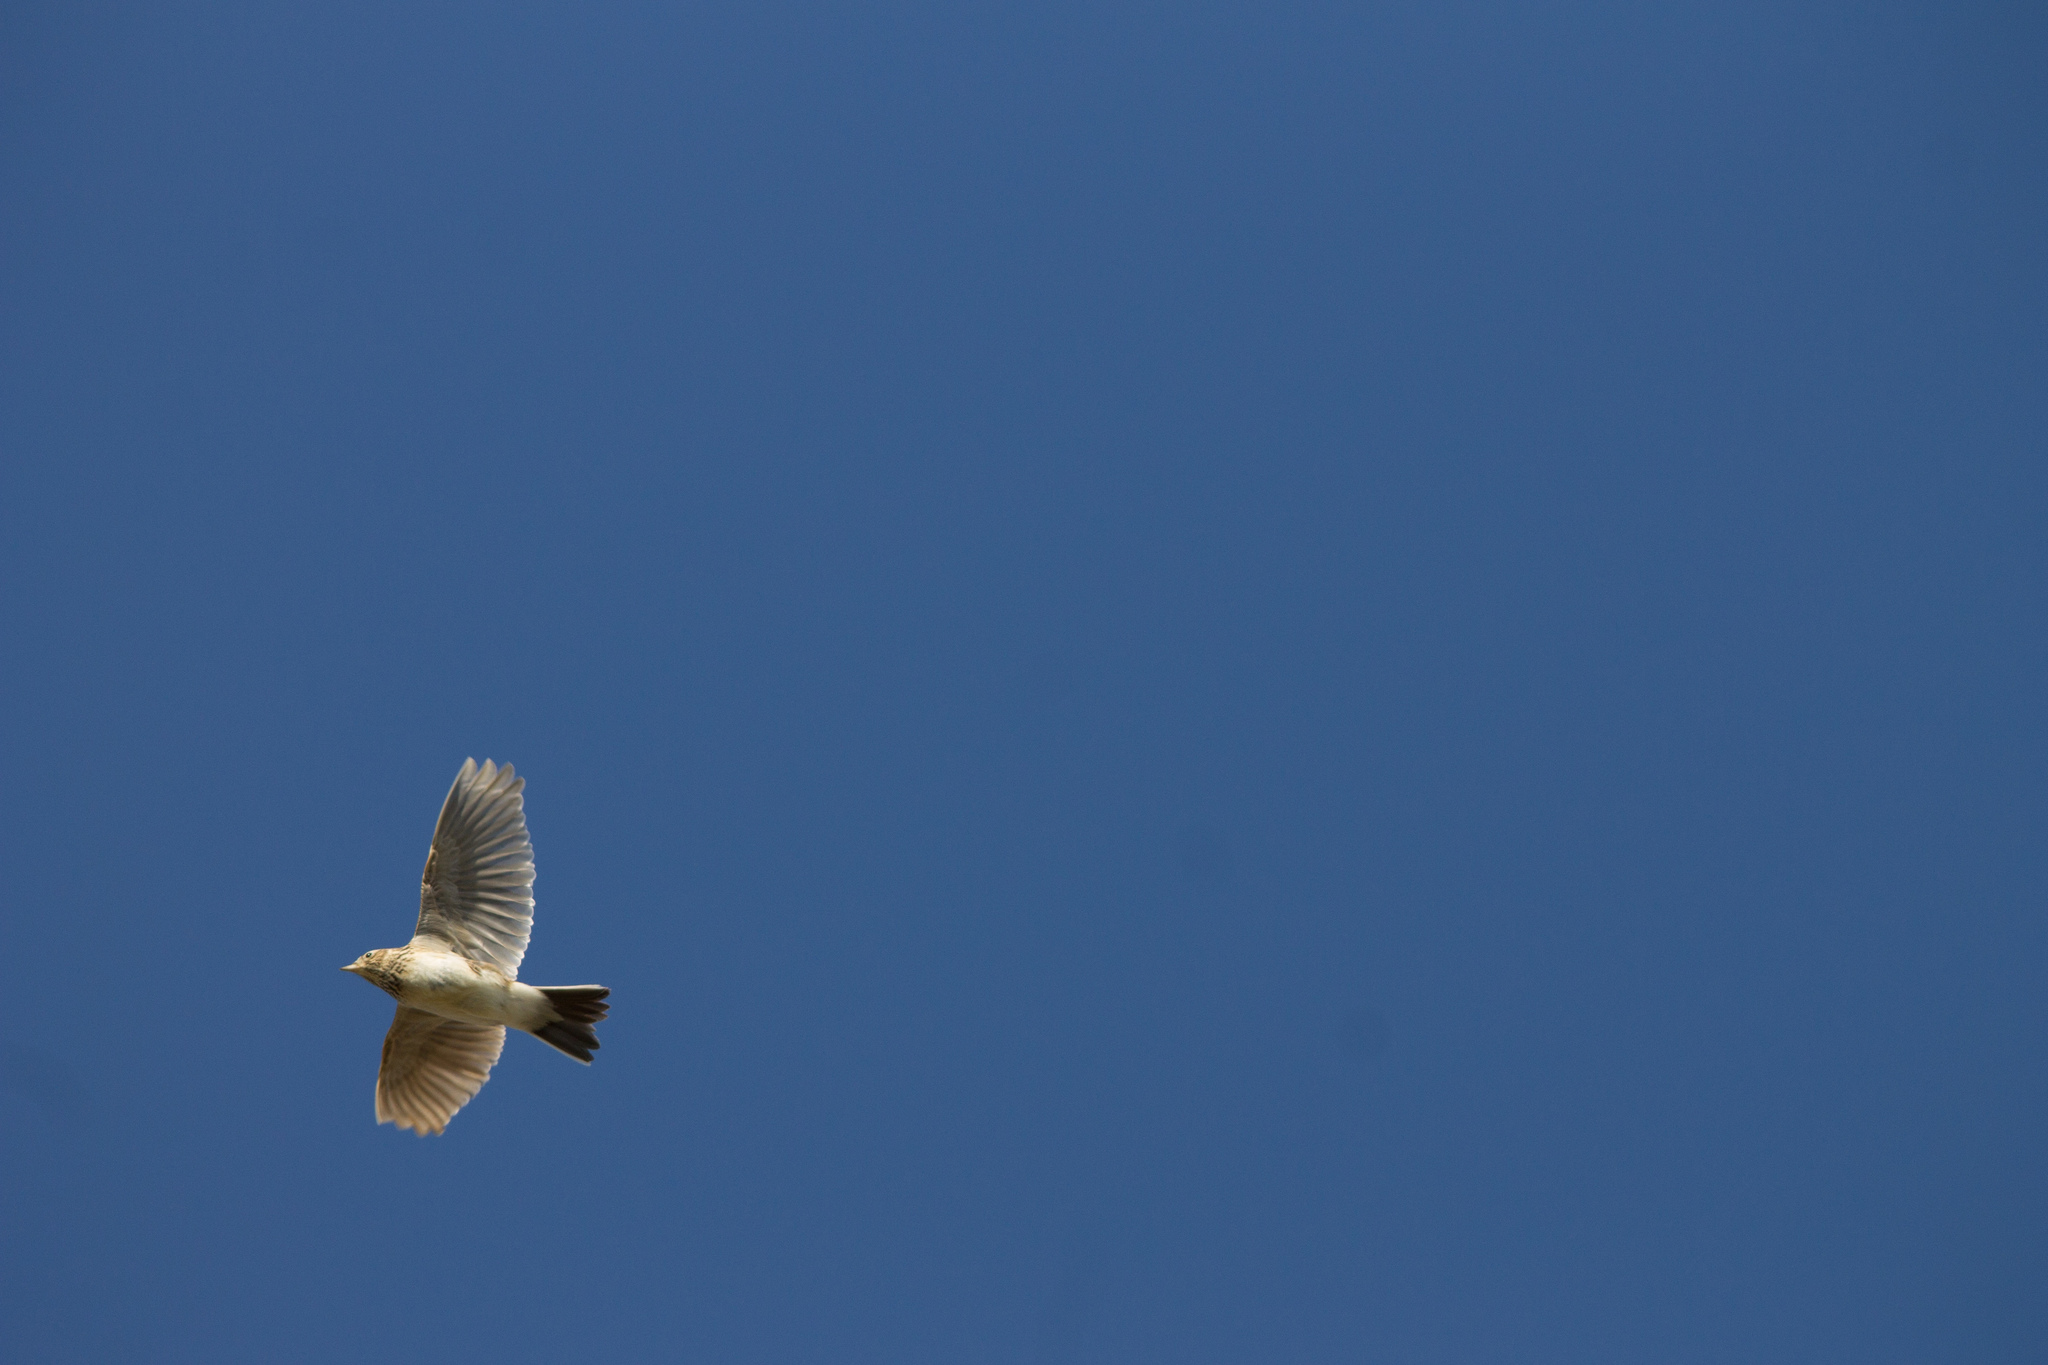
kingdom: Animalia
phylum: Chordata
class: Aves
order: Passeriformes
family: Alaudidae
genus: Alauda
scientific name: Alauda arvensis
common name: Eurasian skylark
